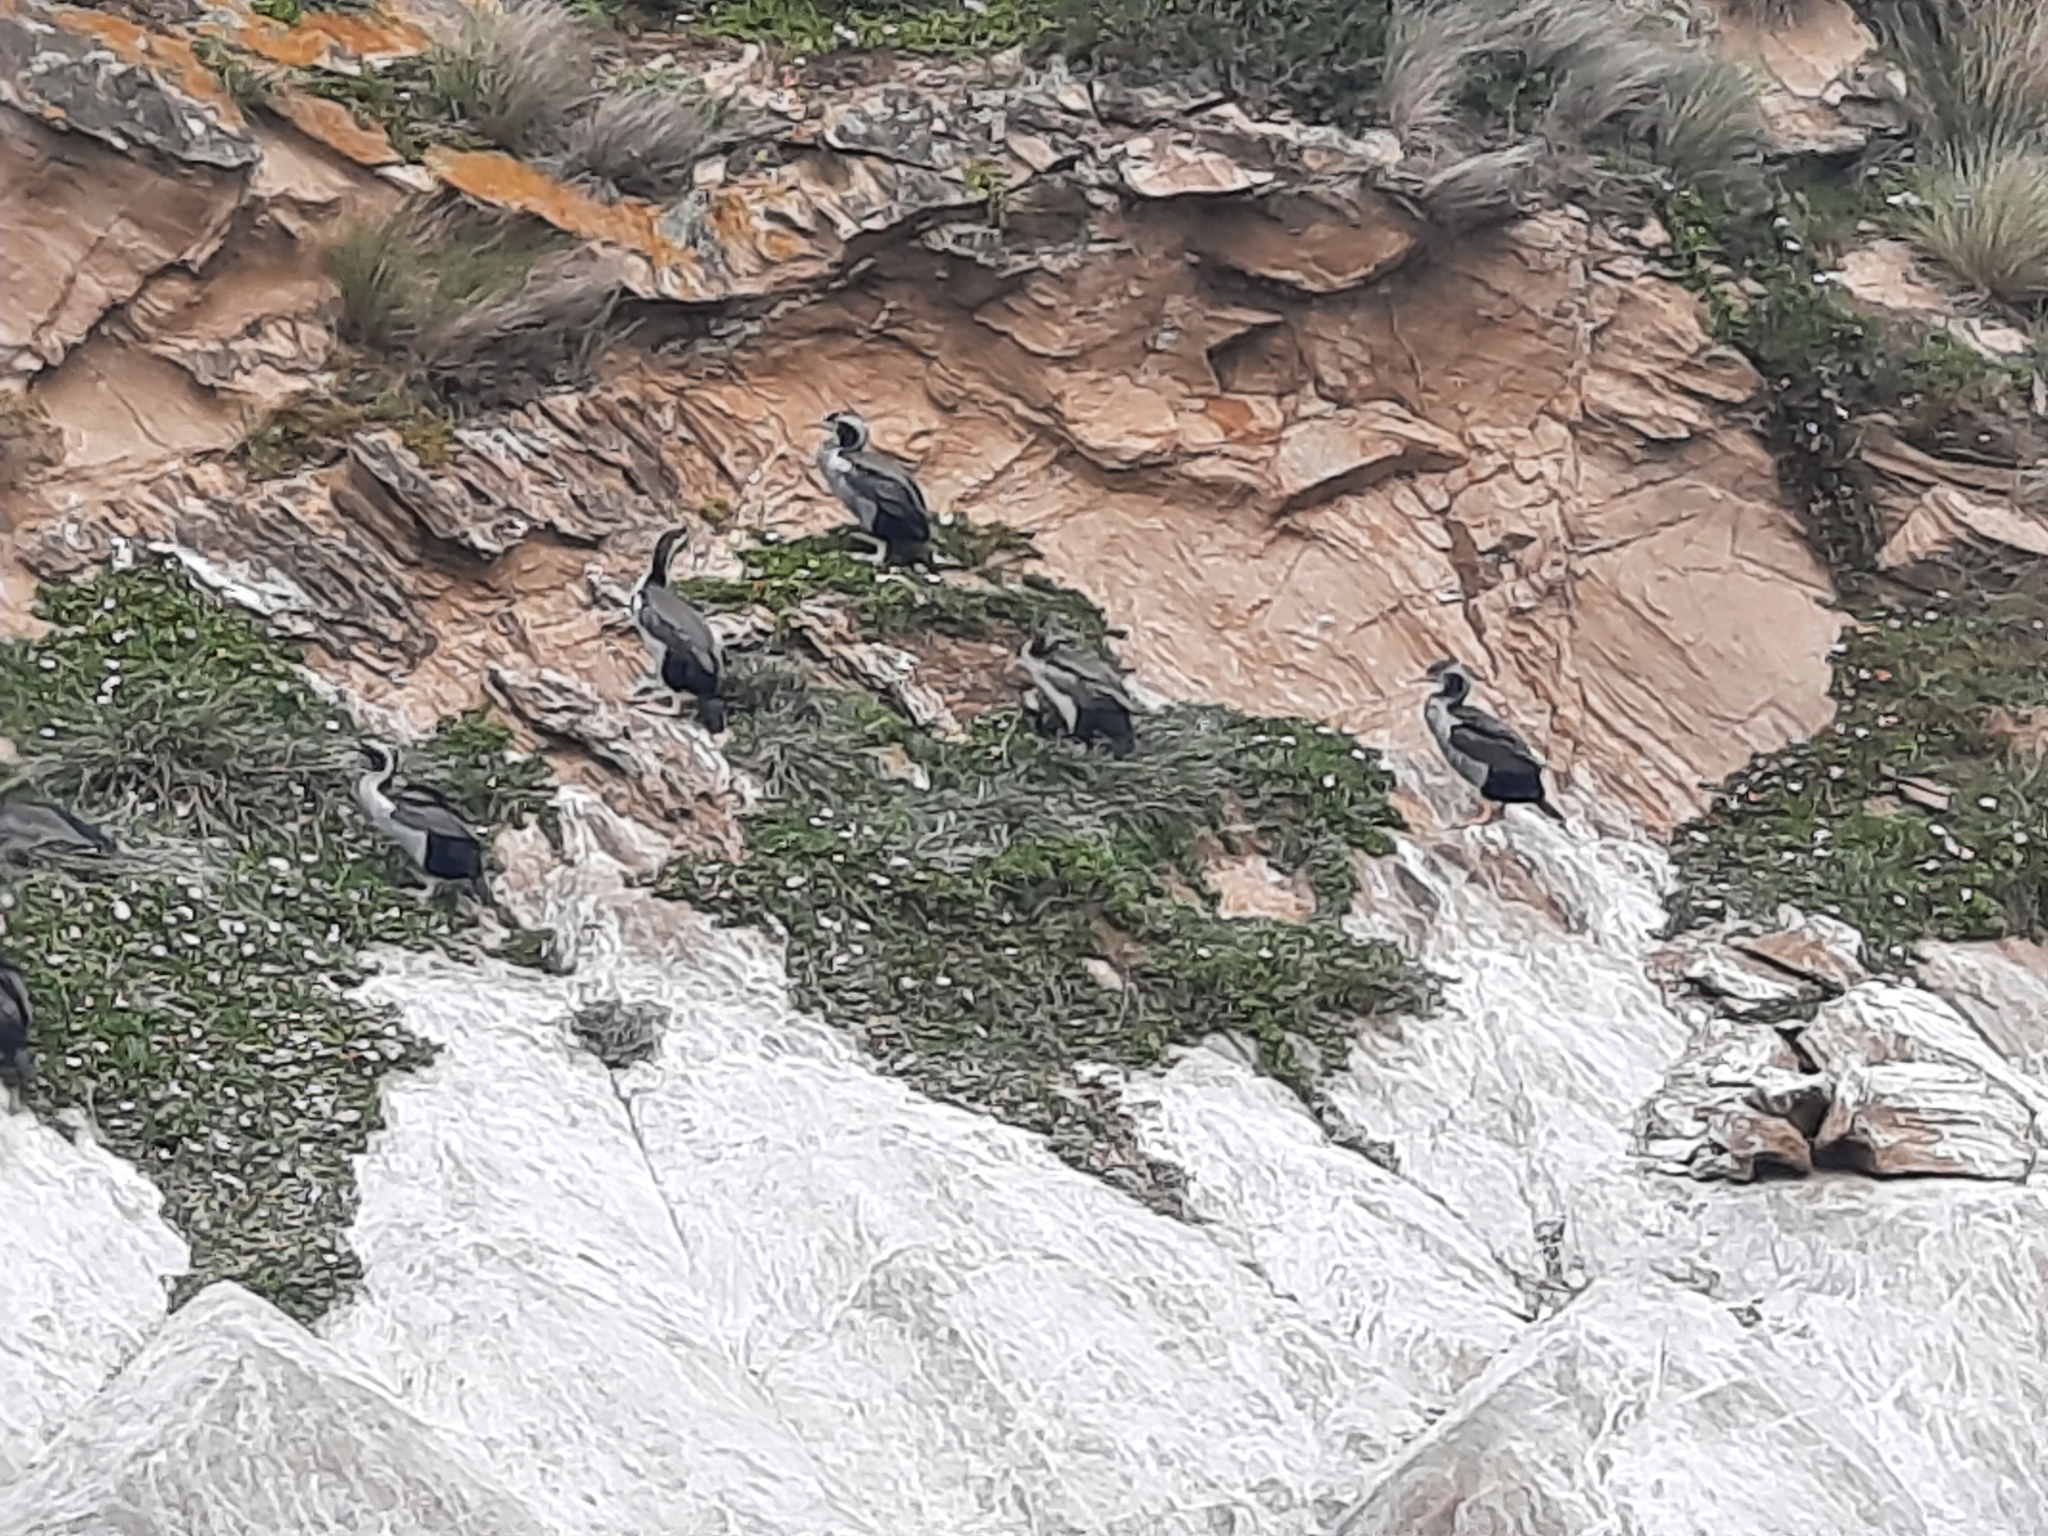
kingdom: Animalia
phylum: Chordata
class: Aves
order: Suliformes
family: Phalacrocoracidae
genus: Phalacrocorax
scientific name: Phalacrocorax punctatus
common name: Spotted shag
